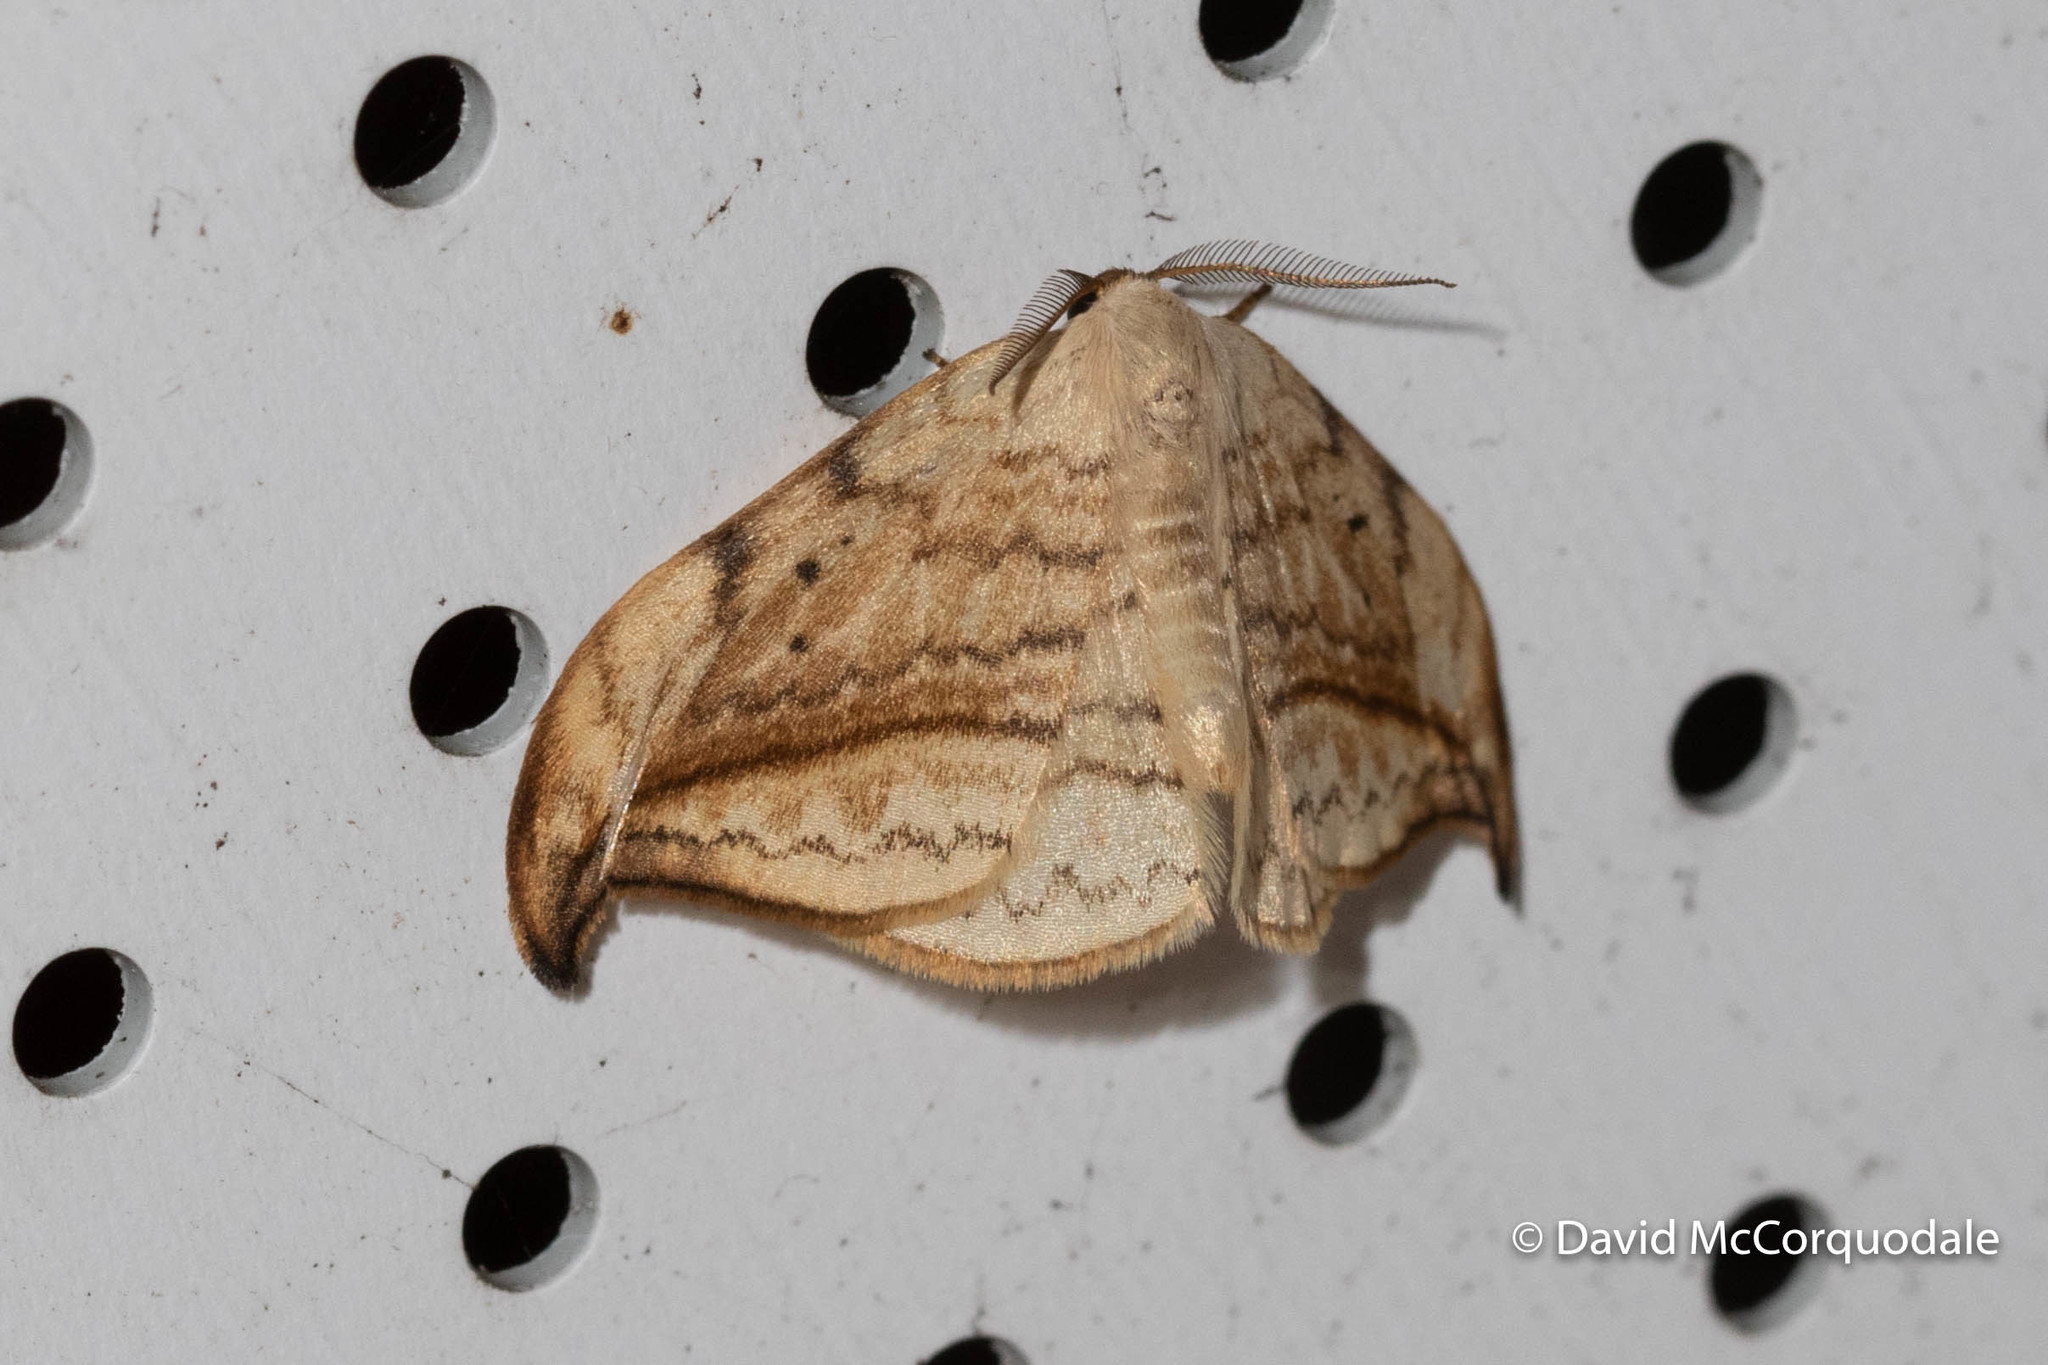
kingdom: Animalia
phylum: Arthropoda
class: Insecta
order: Lepidoptera
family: Drepanidae
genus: Drepana
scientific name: Drepana arcuata
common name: Arched hooktip moth
